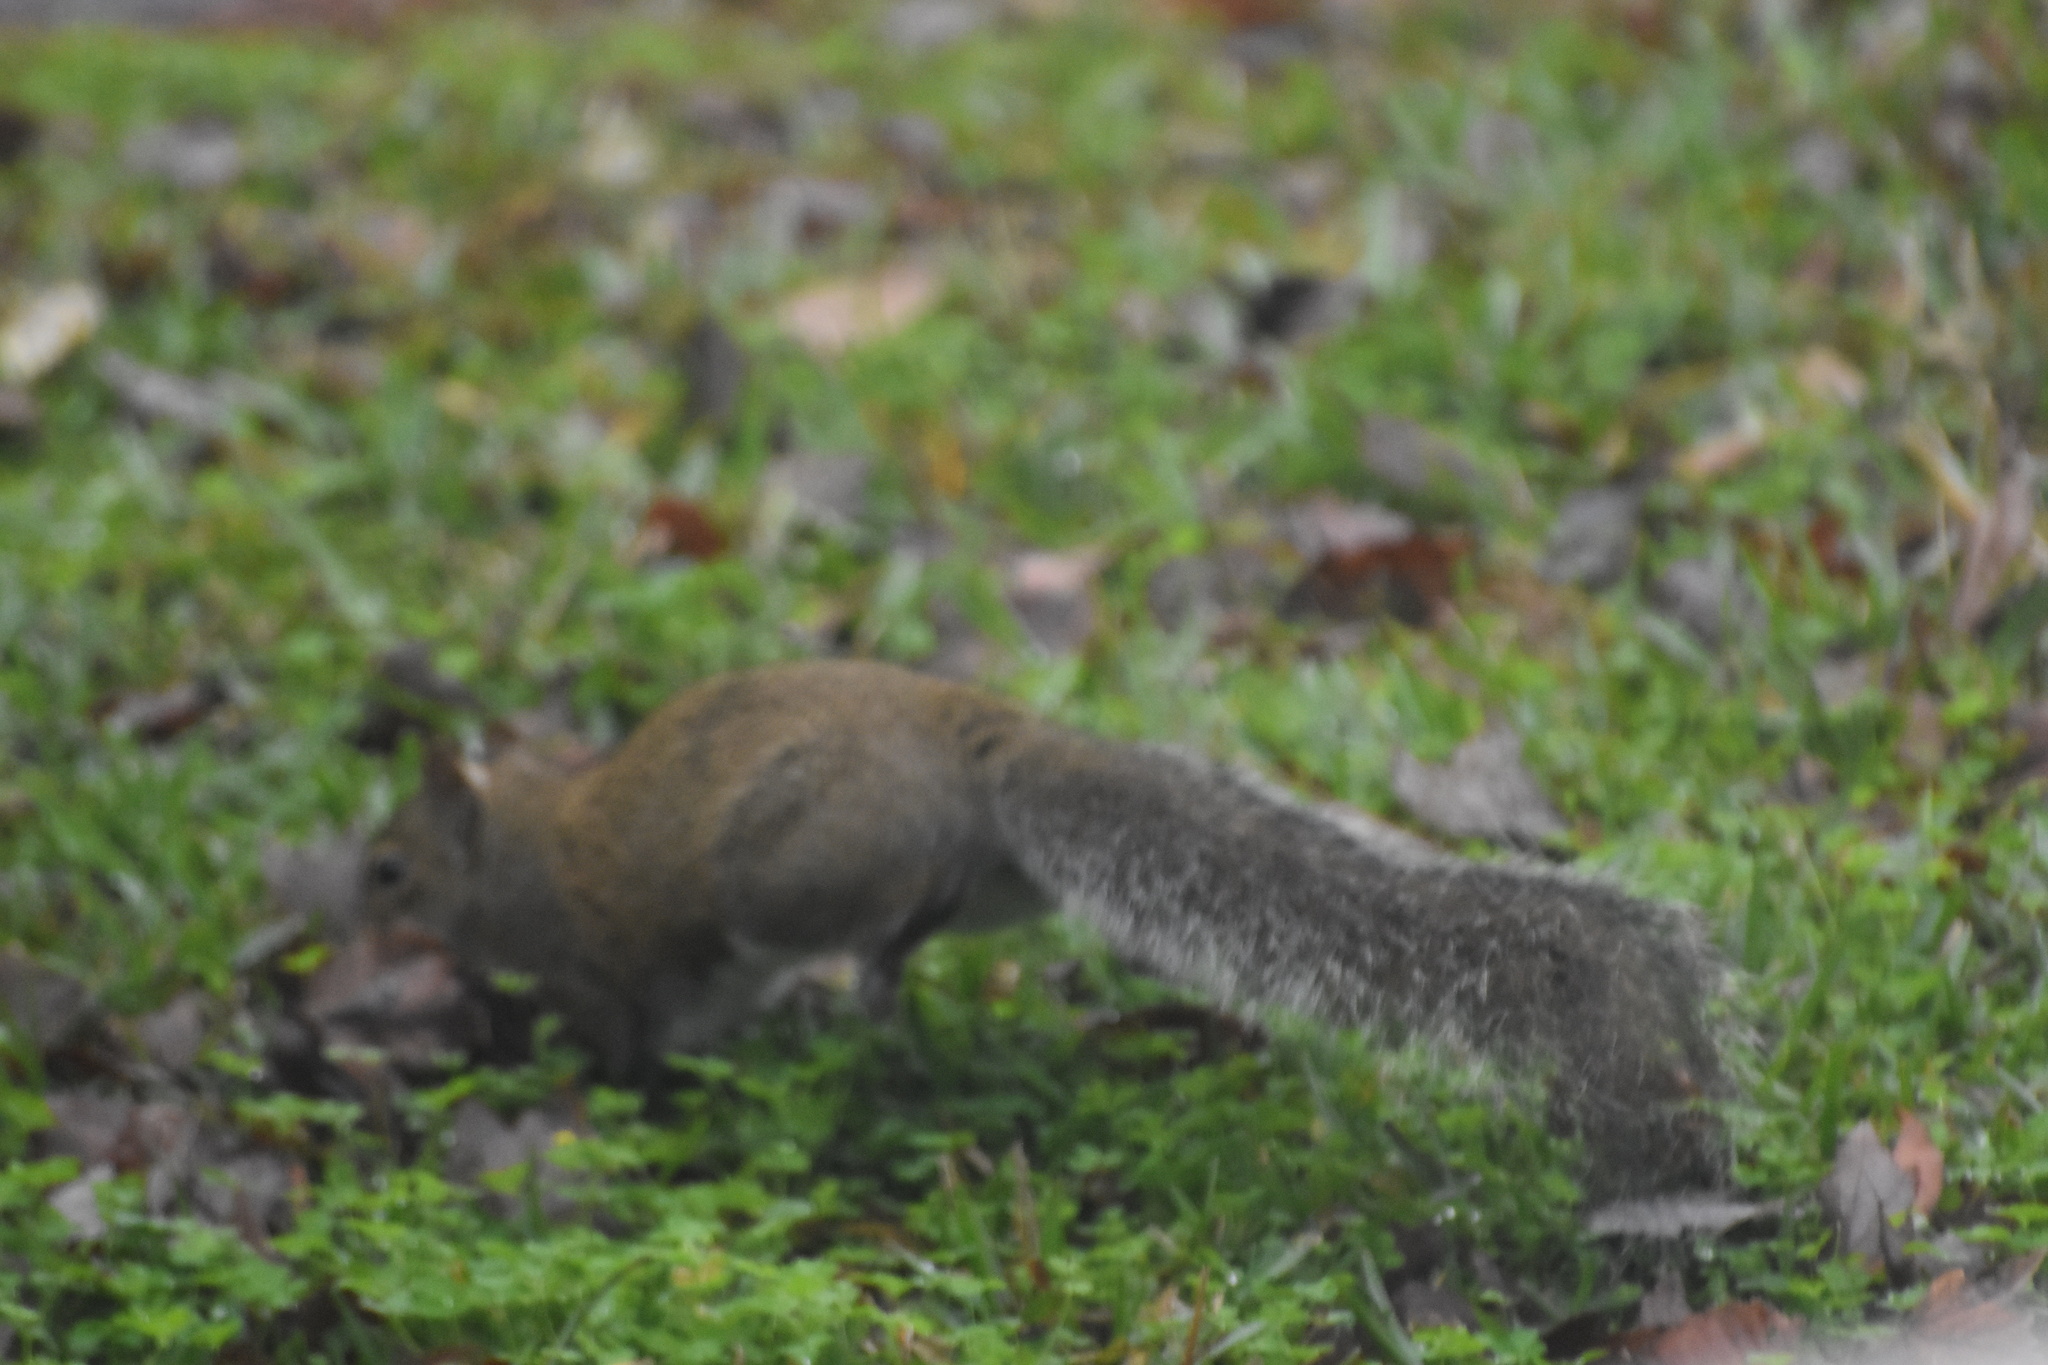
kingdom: Animalia
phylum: Chordata
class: Mammalia
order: Rodentia
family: Sciuridae
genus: Sciurus
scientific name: Sciurus carolinensis
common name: Eastern gray squirrel
